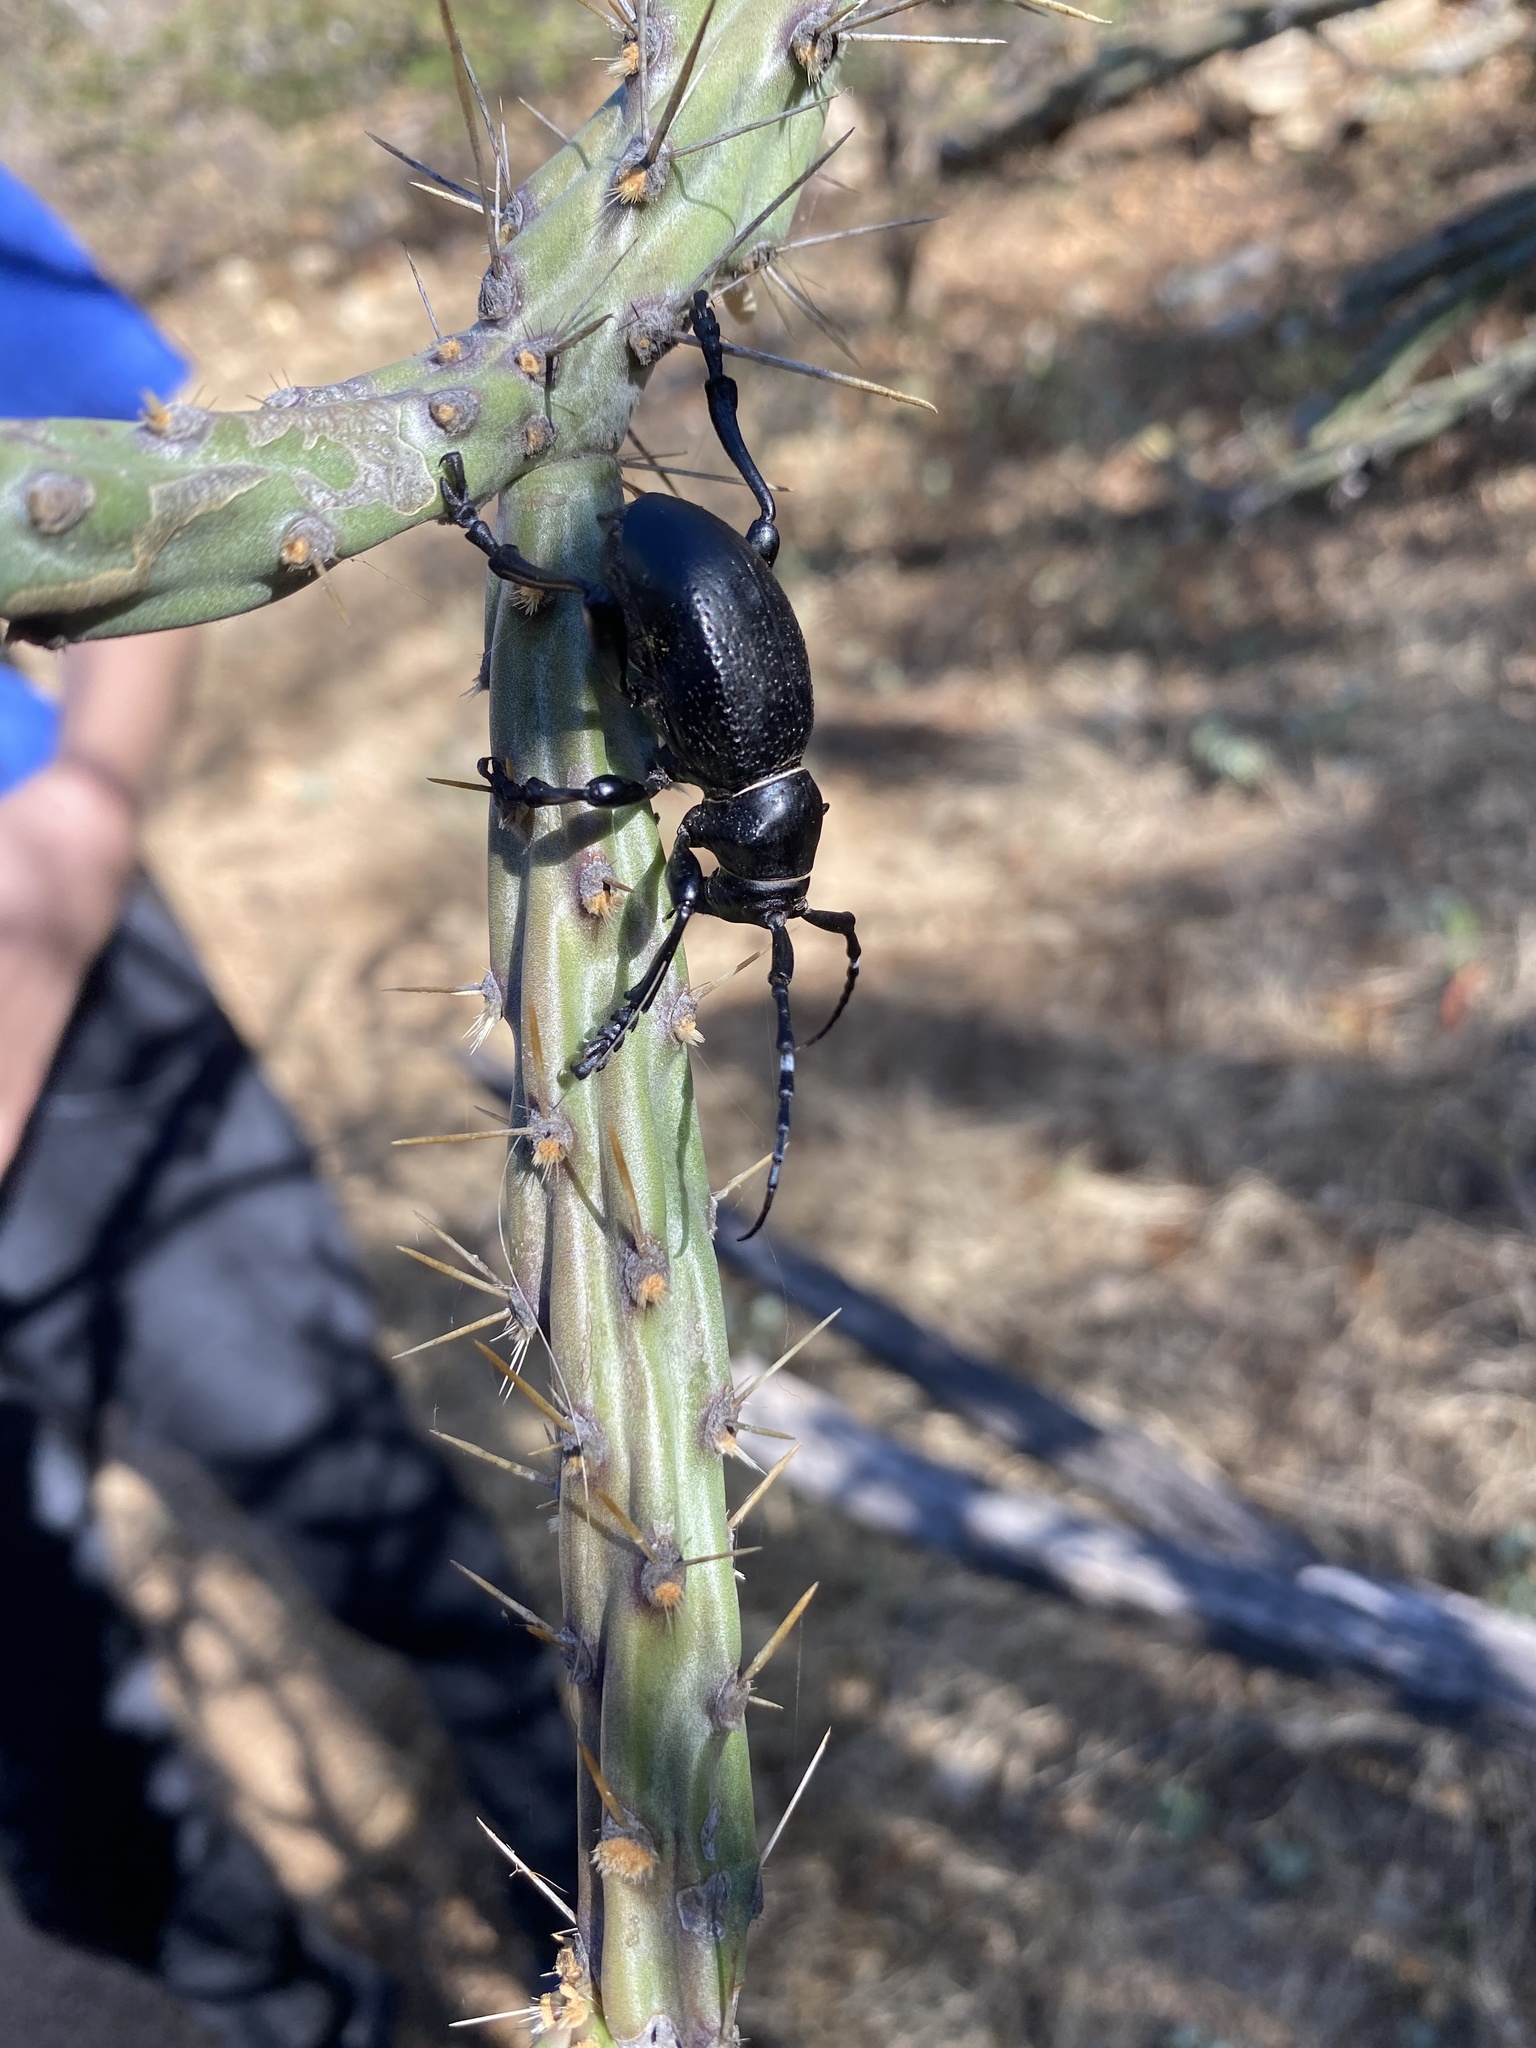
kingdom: Animalia
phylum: Arthropoda
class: Insecta
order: Coleoptera
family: Cerambycidae
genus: Moneilema
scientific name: Moneilema gigas
